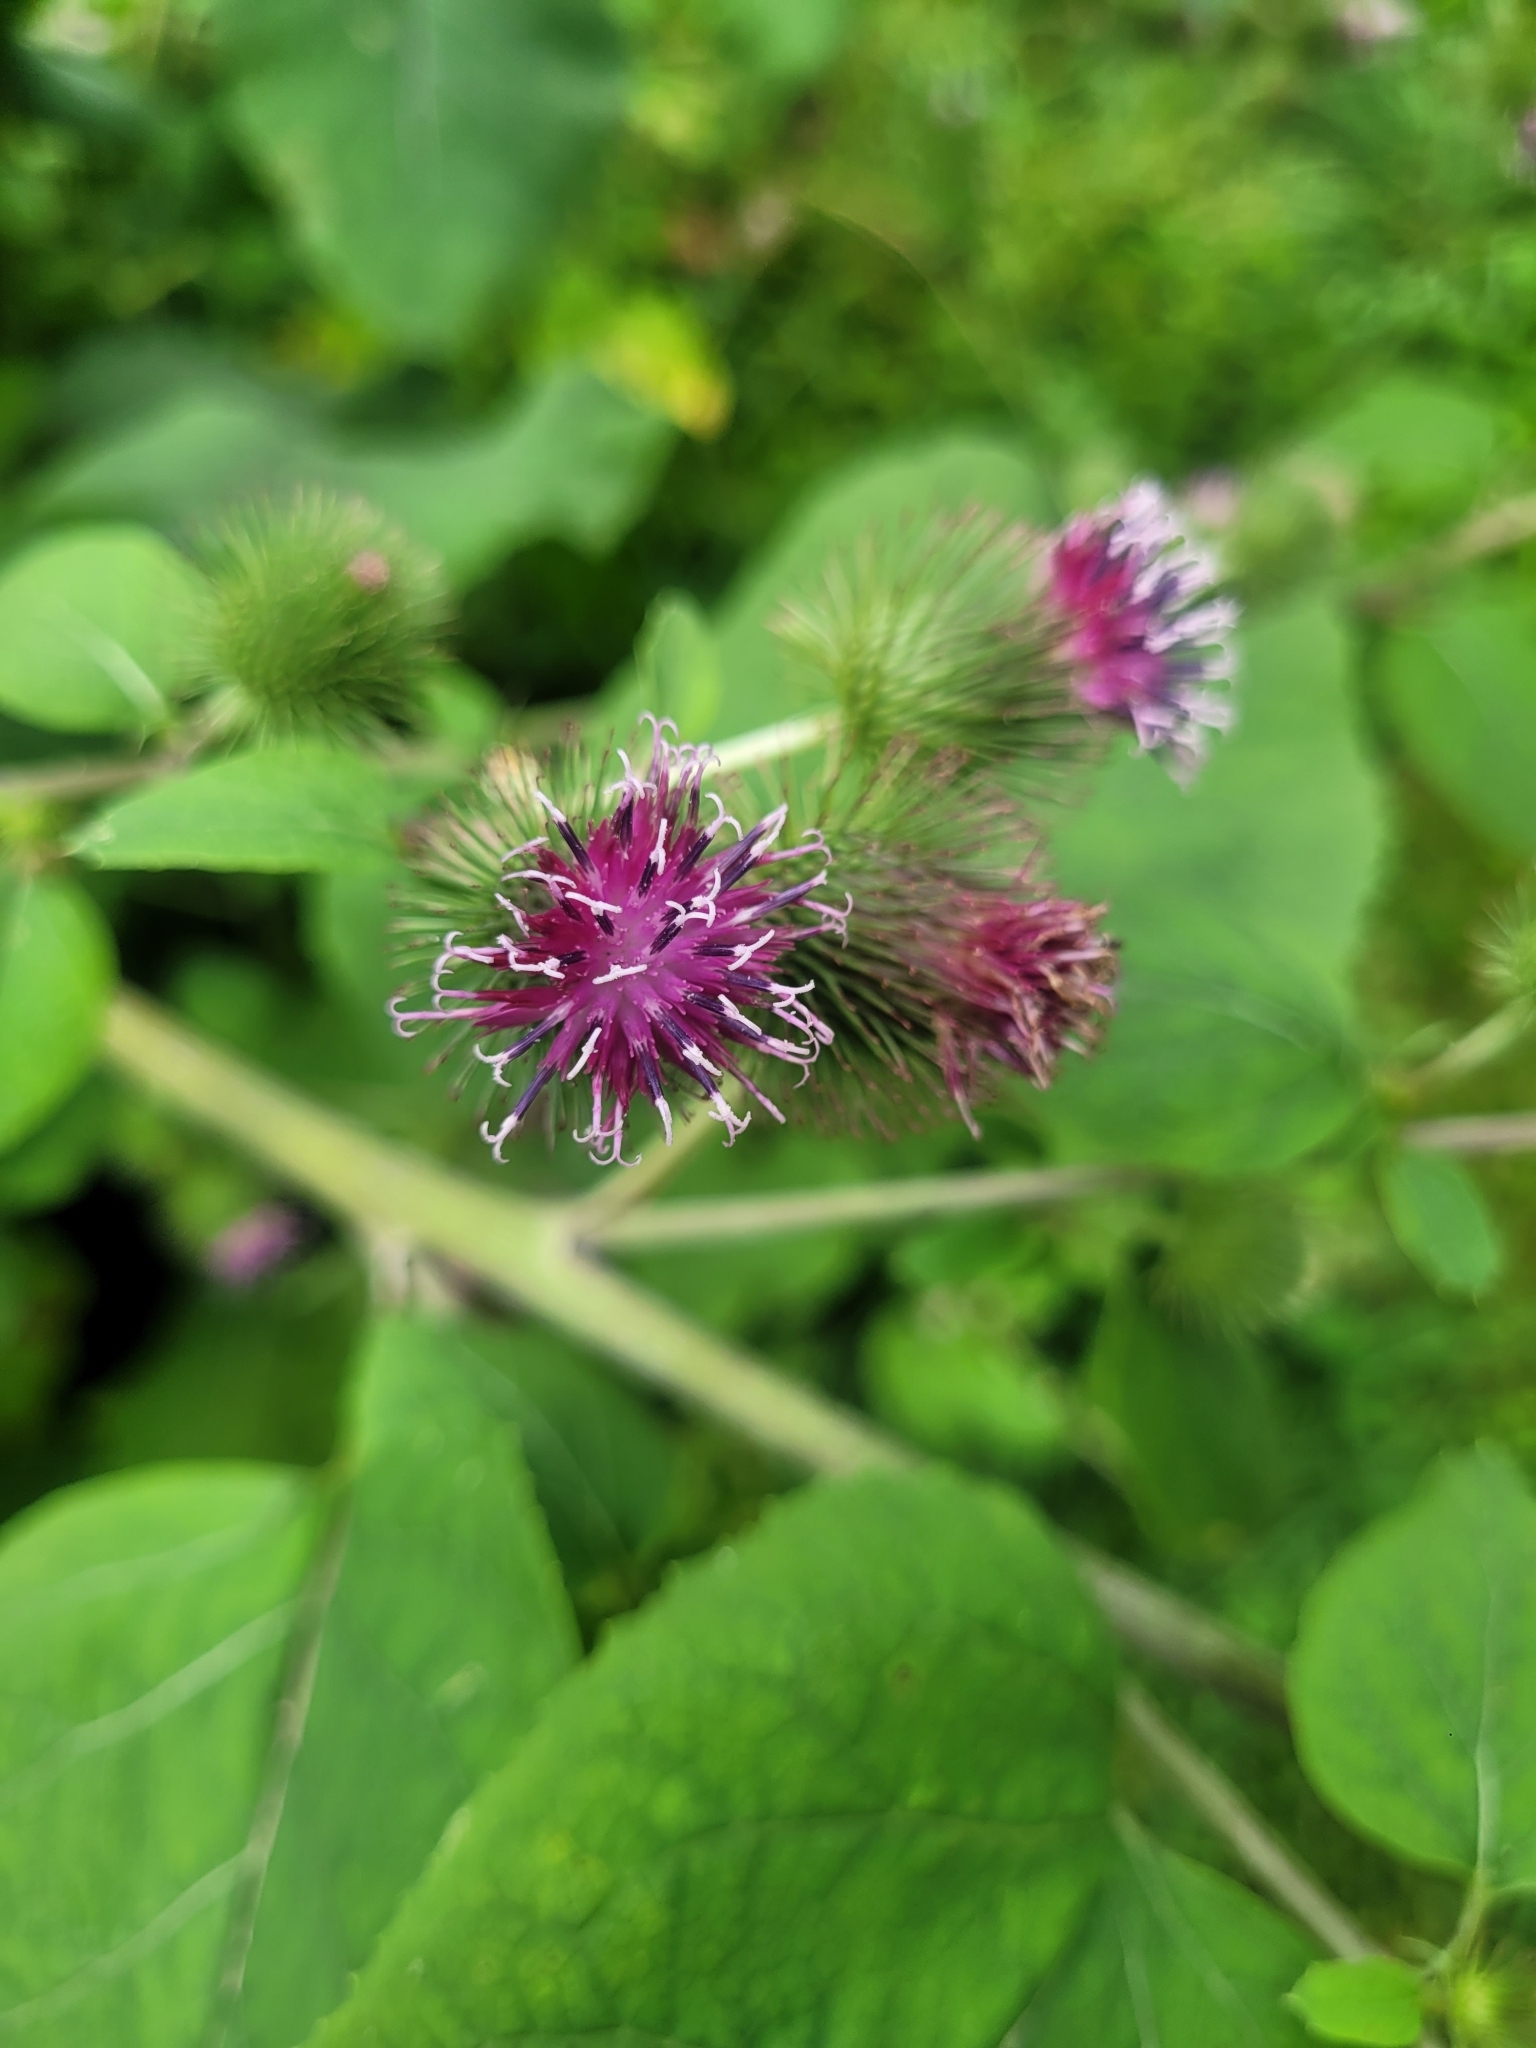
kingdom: Plantae
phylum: Tracheophyta
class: Magnoliopsida
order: Asterales
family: Asteraceae
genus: Arctium
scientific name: Arctium lappa
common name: Greater burdock
